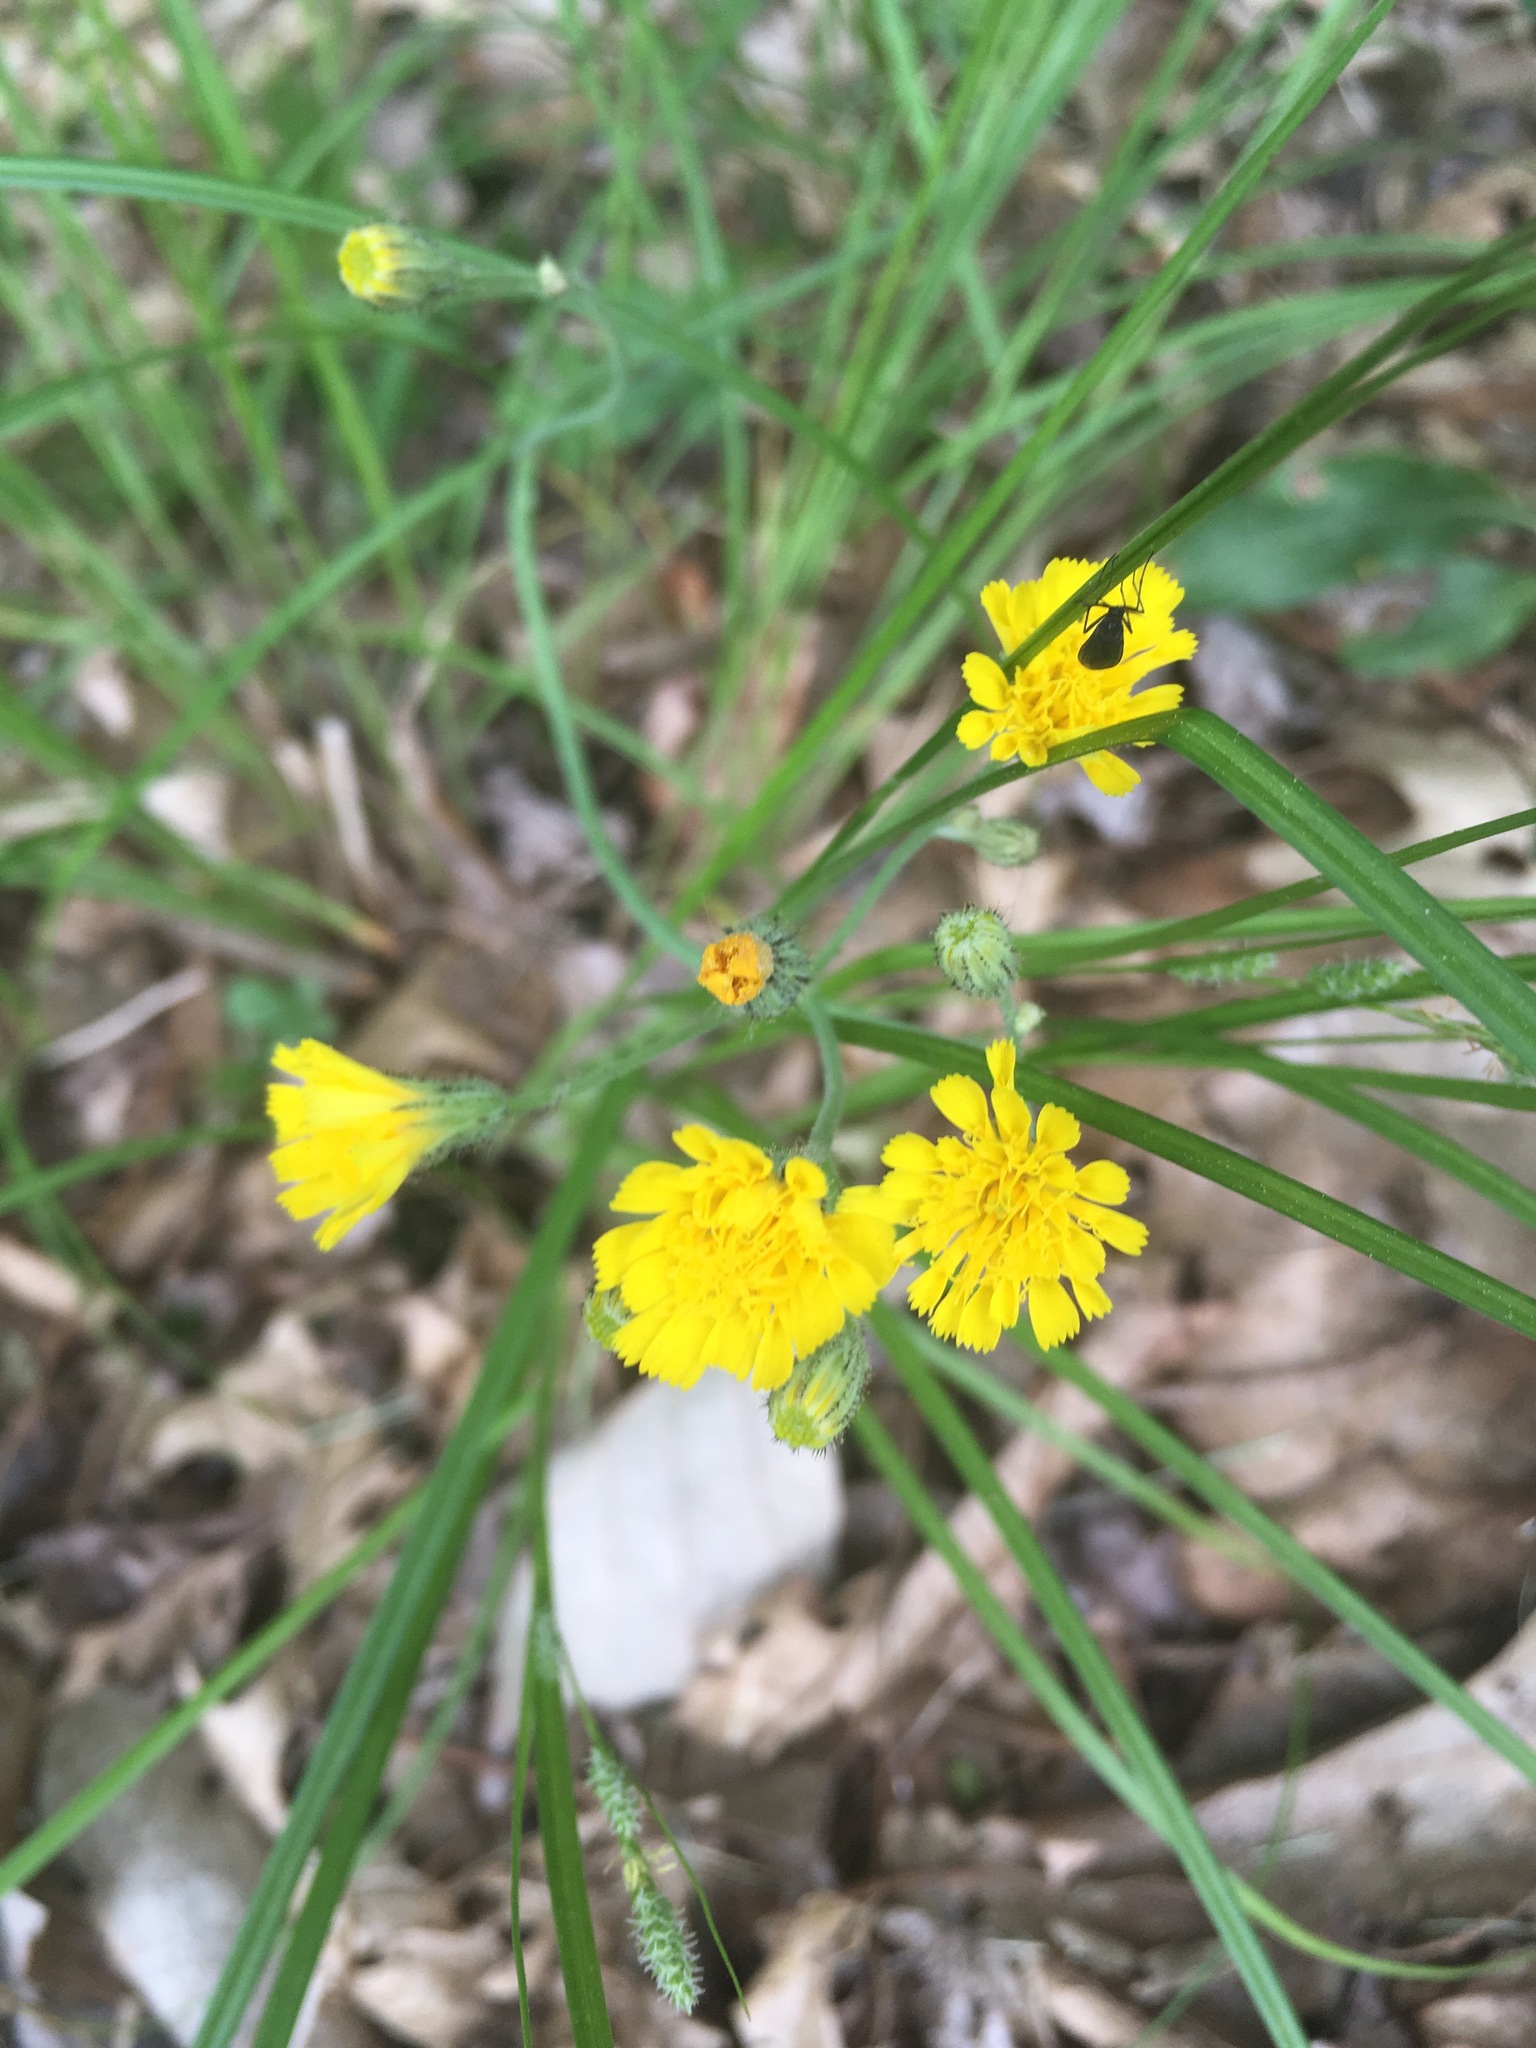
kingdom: Plantae
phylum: Tracheophyta
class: Magnoliopsida
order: Asterales
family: Asteraceae
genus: Pilosella
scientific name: Pilosella piloselloides
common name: Glaucous king-devil
